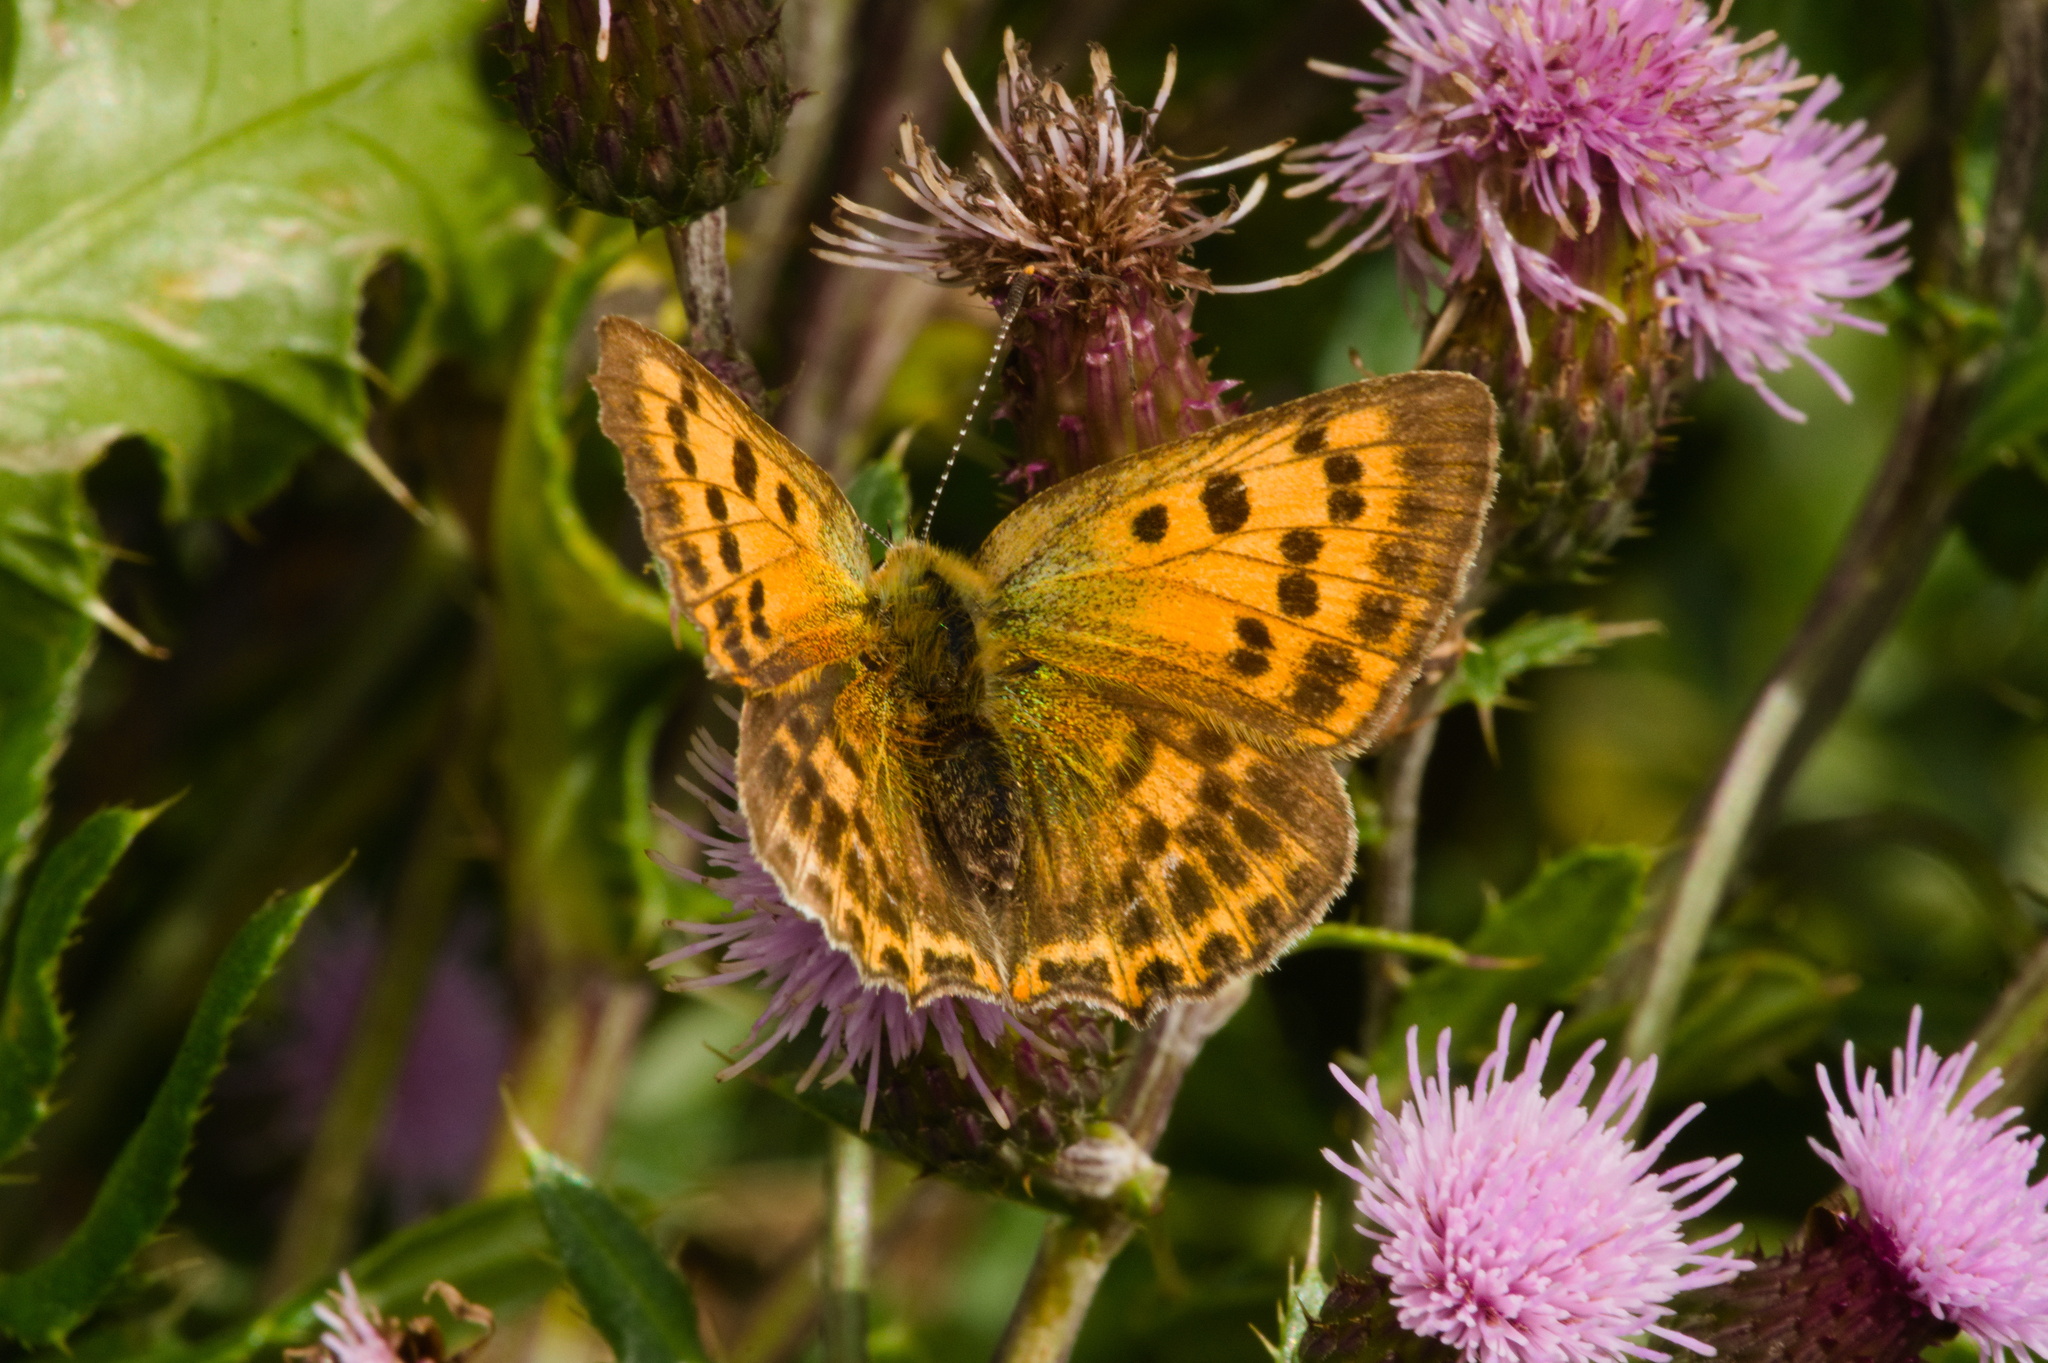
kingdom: Animalia
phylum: Arthropoda
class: Insecta
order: Lepidoptera
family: Lycaenidae
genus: Lycaena
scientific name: Lycaena virgaureae
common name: Scarce copper
